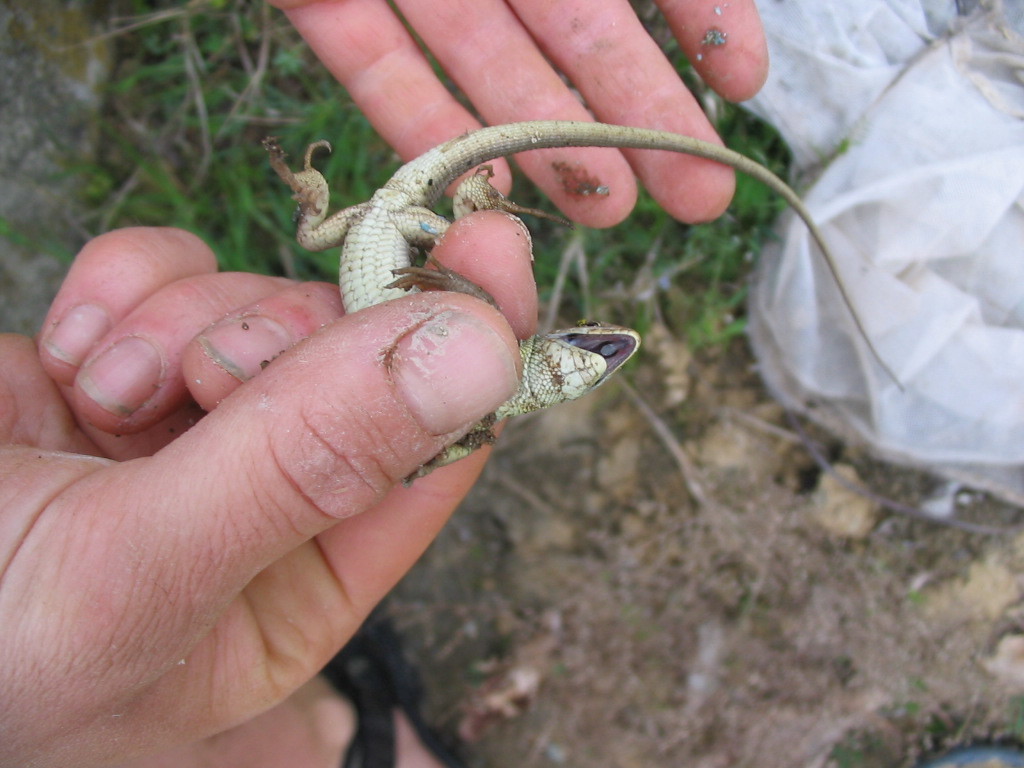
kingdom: Animalia
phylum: Chordata
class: Squamata
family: Lacertidae
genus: Lacerta
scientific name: Lacerta viridis
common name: European green lizard
